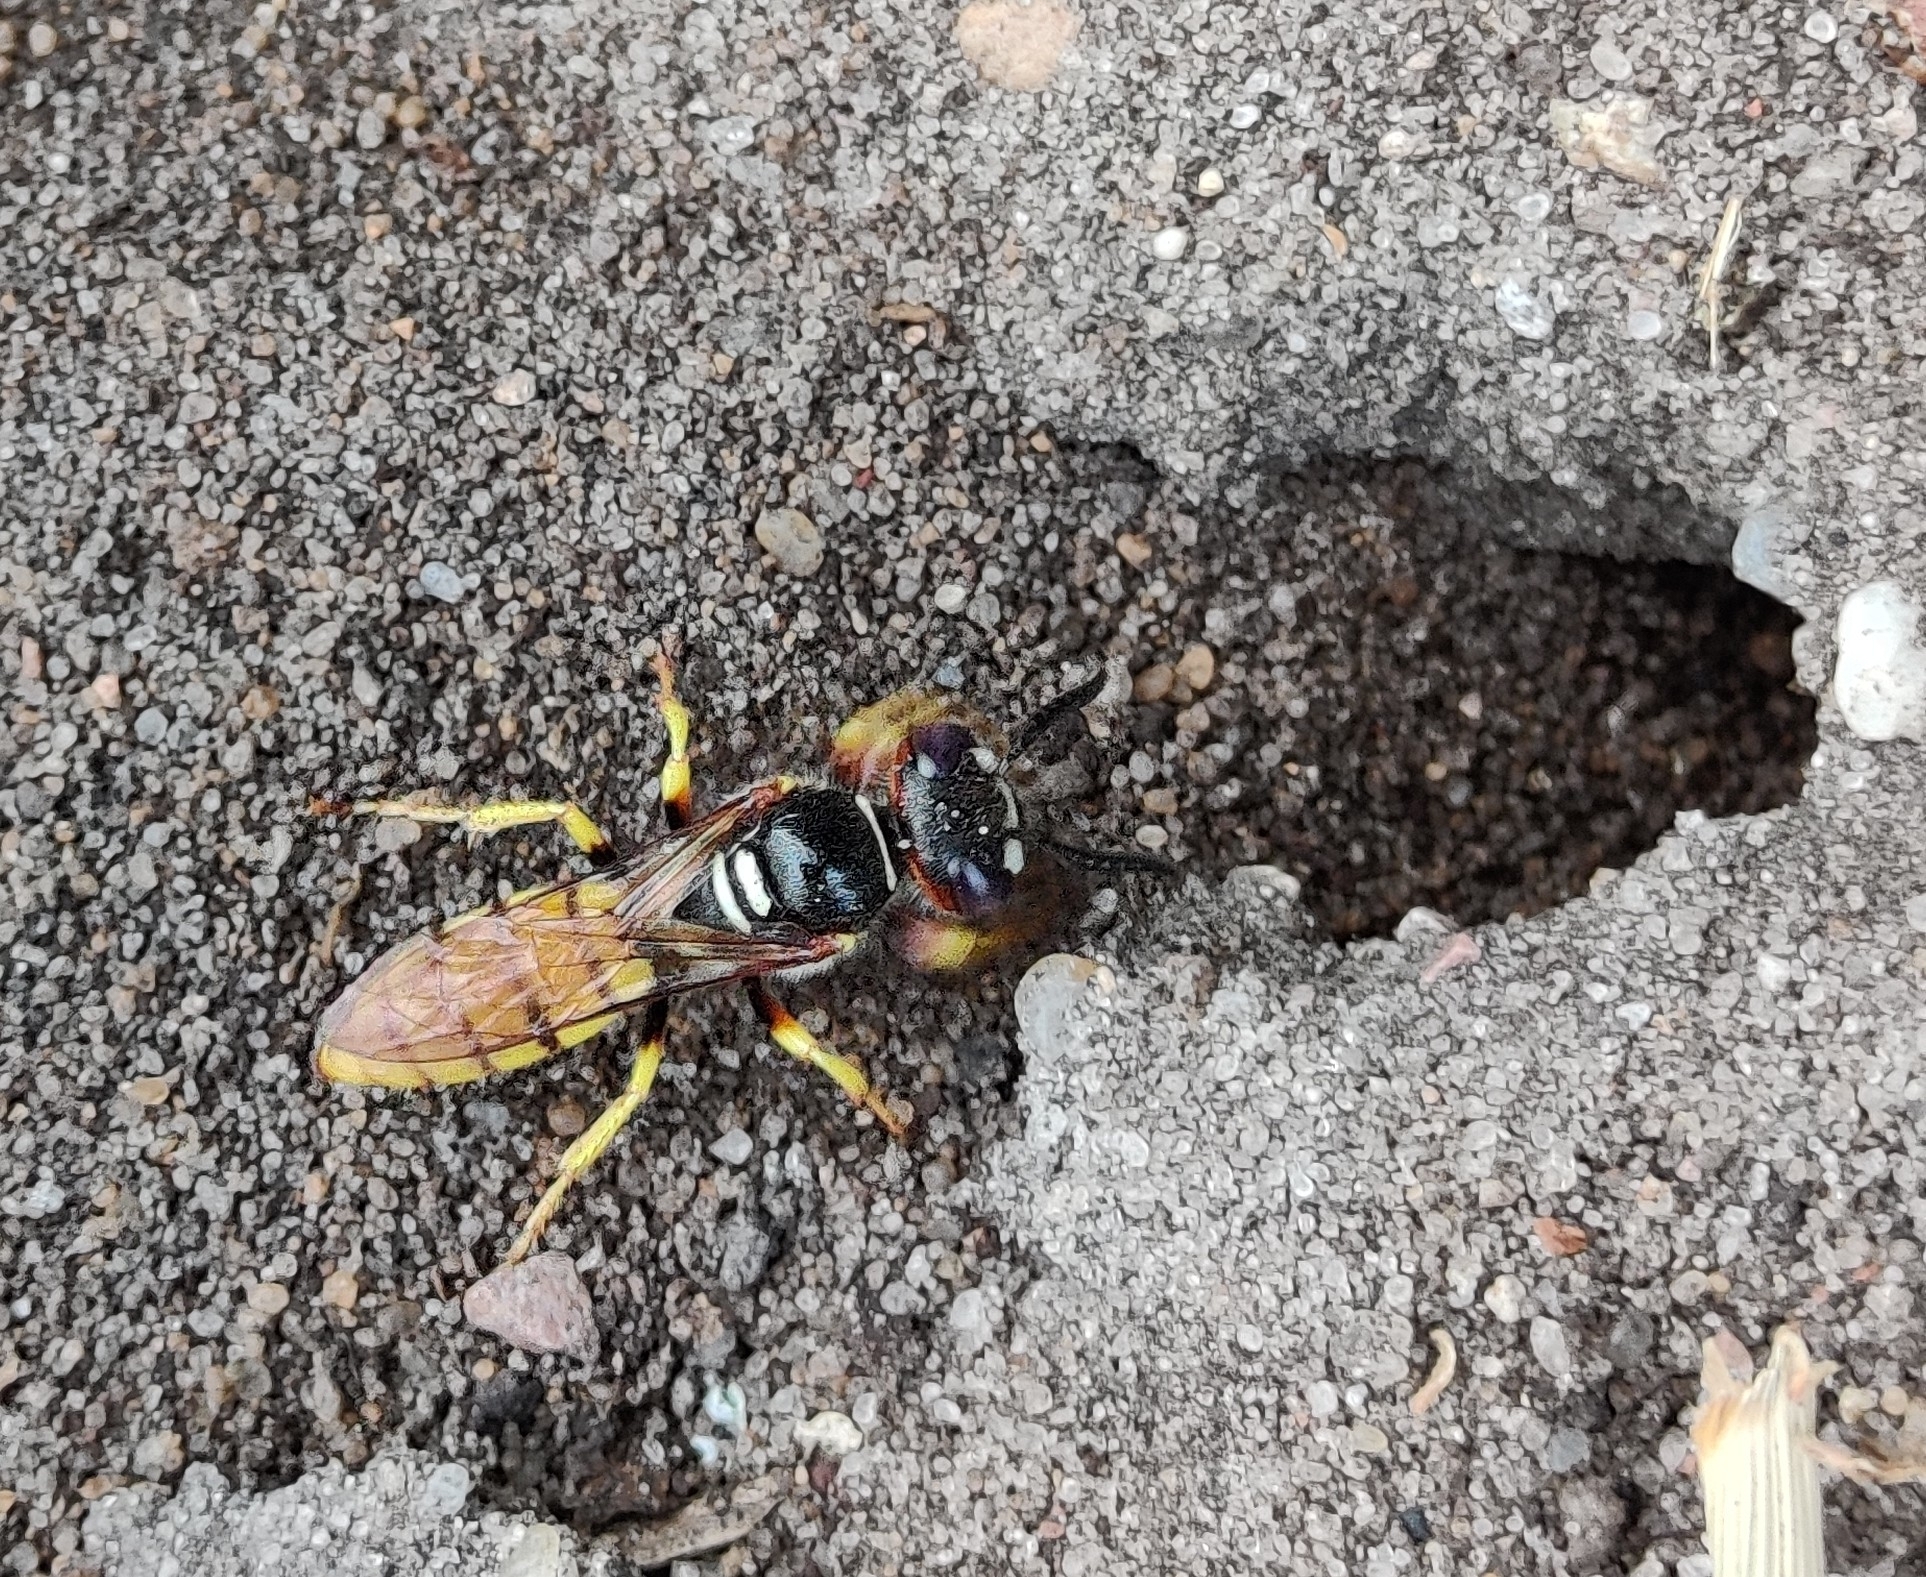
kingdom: Animalia
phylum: Arthropoda
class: Insecta
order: Hymenoptera
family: Crabronidae
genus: Philanthus
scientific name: Philanthus triangulum
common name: Bee wolf
